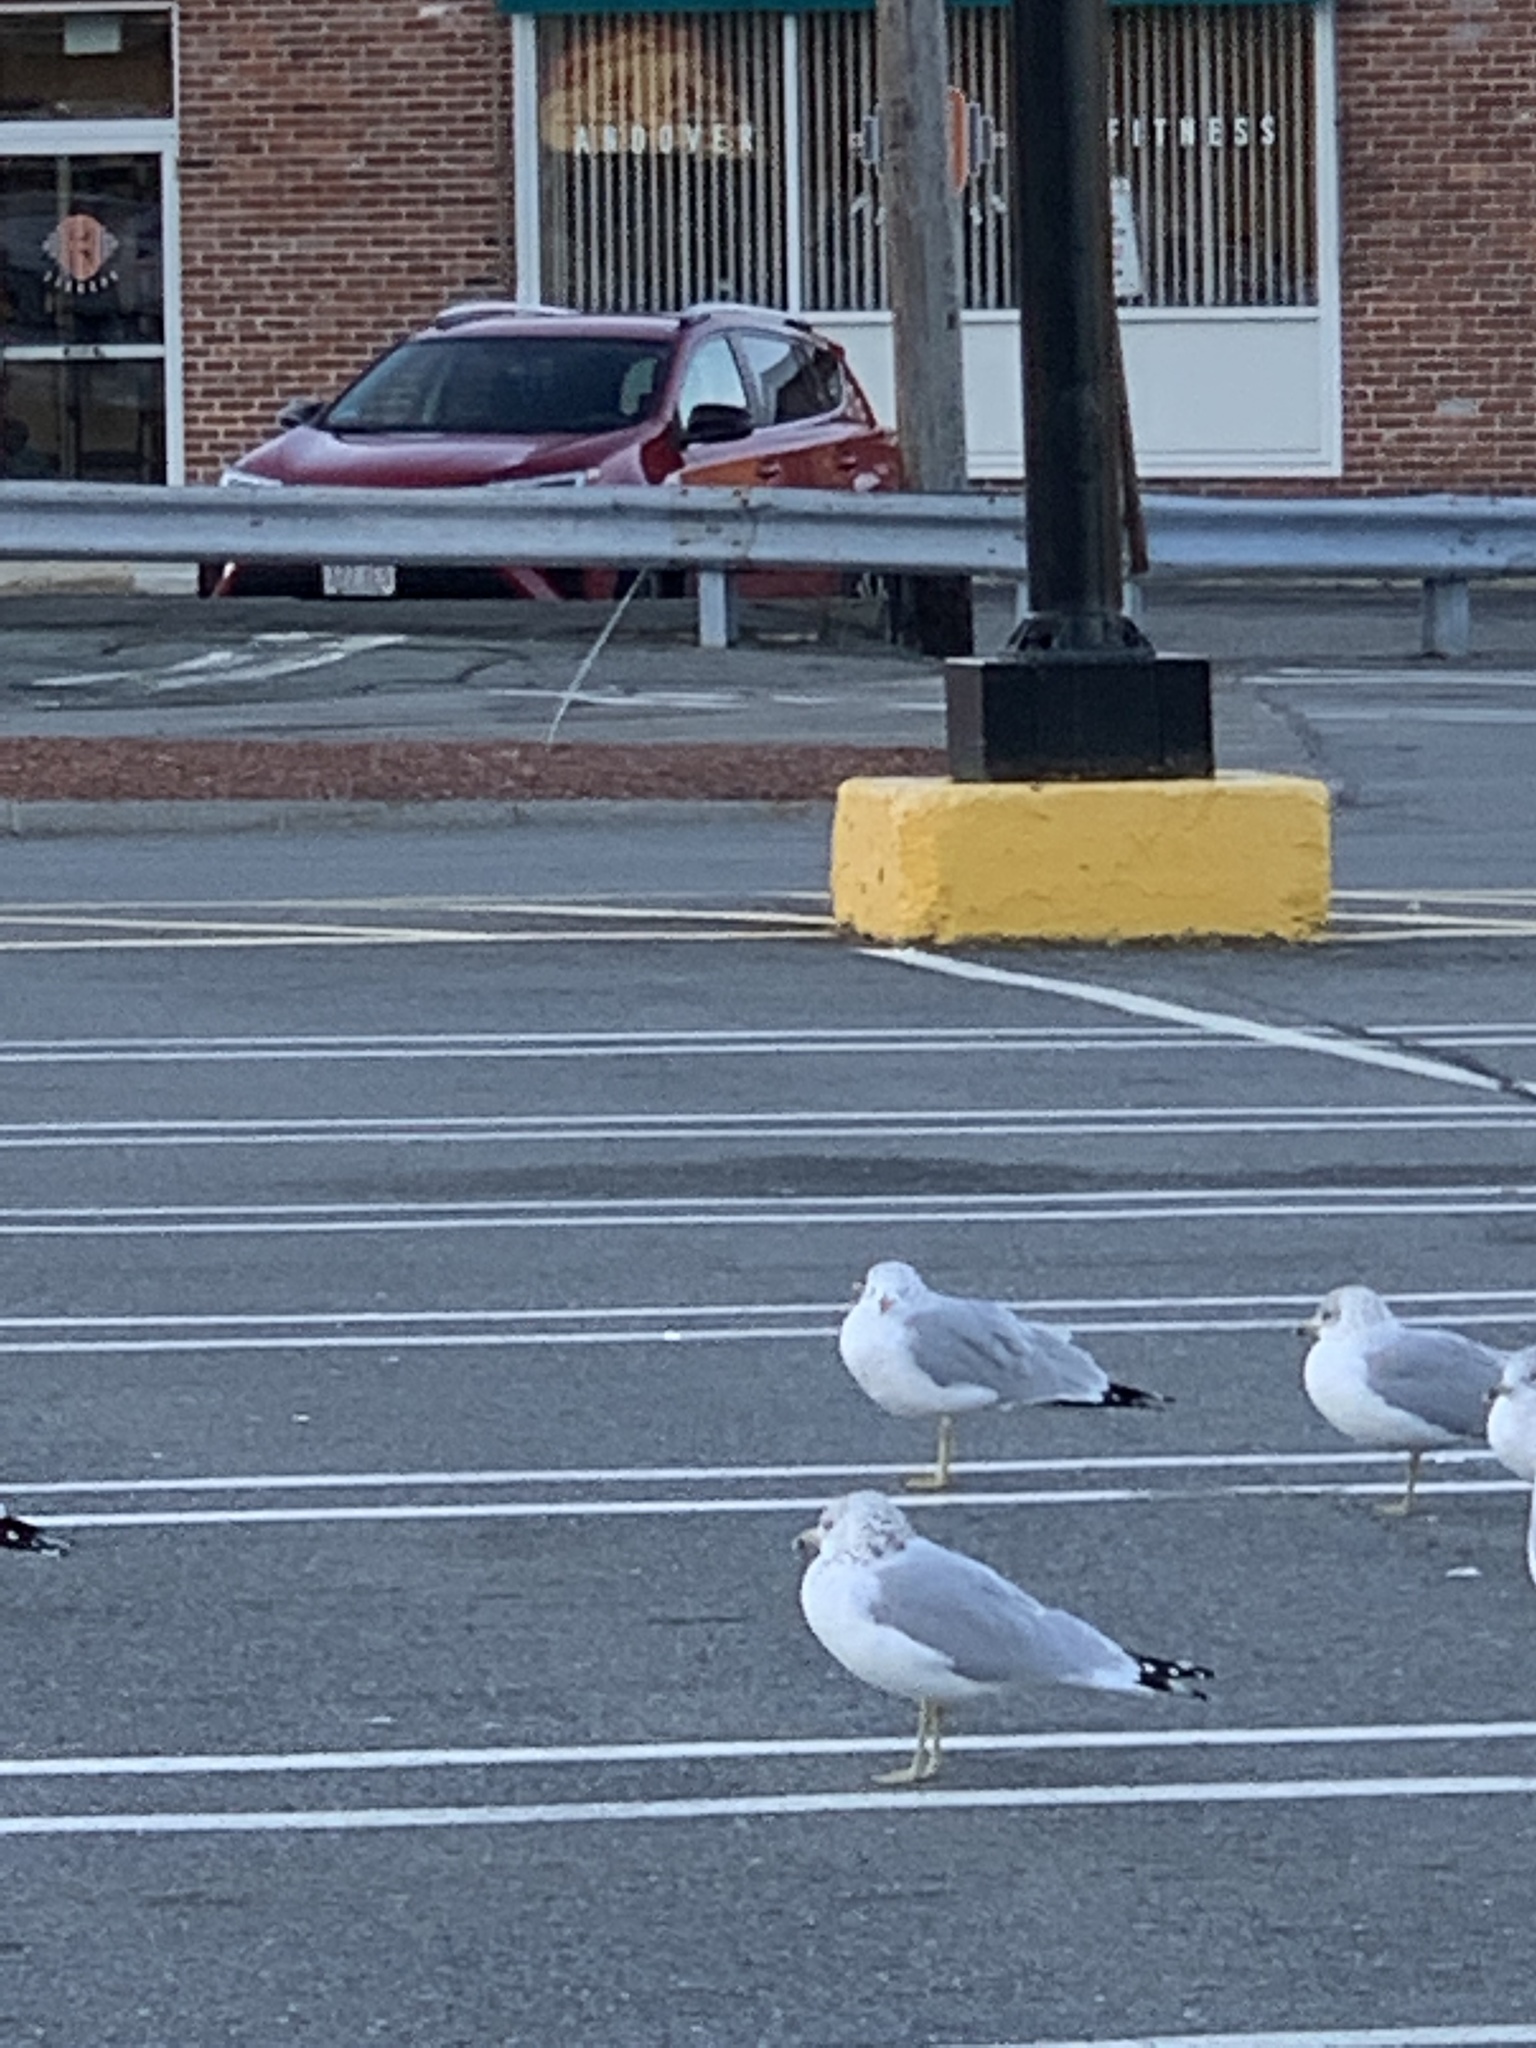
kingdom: Animalia
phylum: Chordata
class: Aves
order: Charadriiformes
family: Laridae
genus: Larus
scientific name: Larus delawarensis
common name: Ring-billed gull
